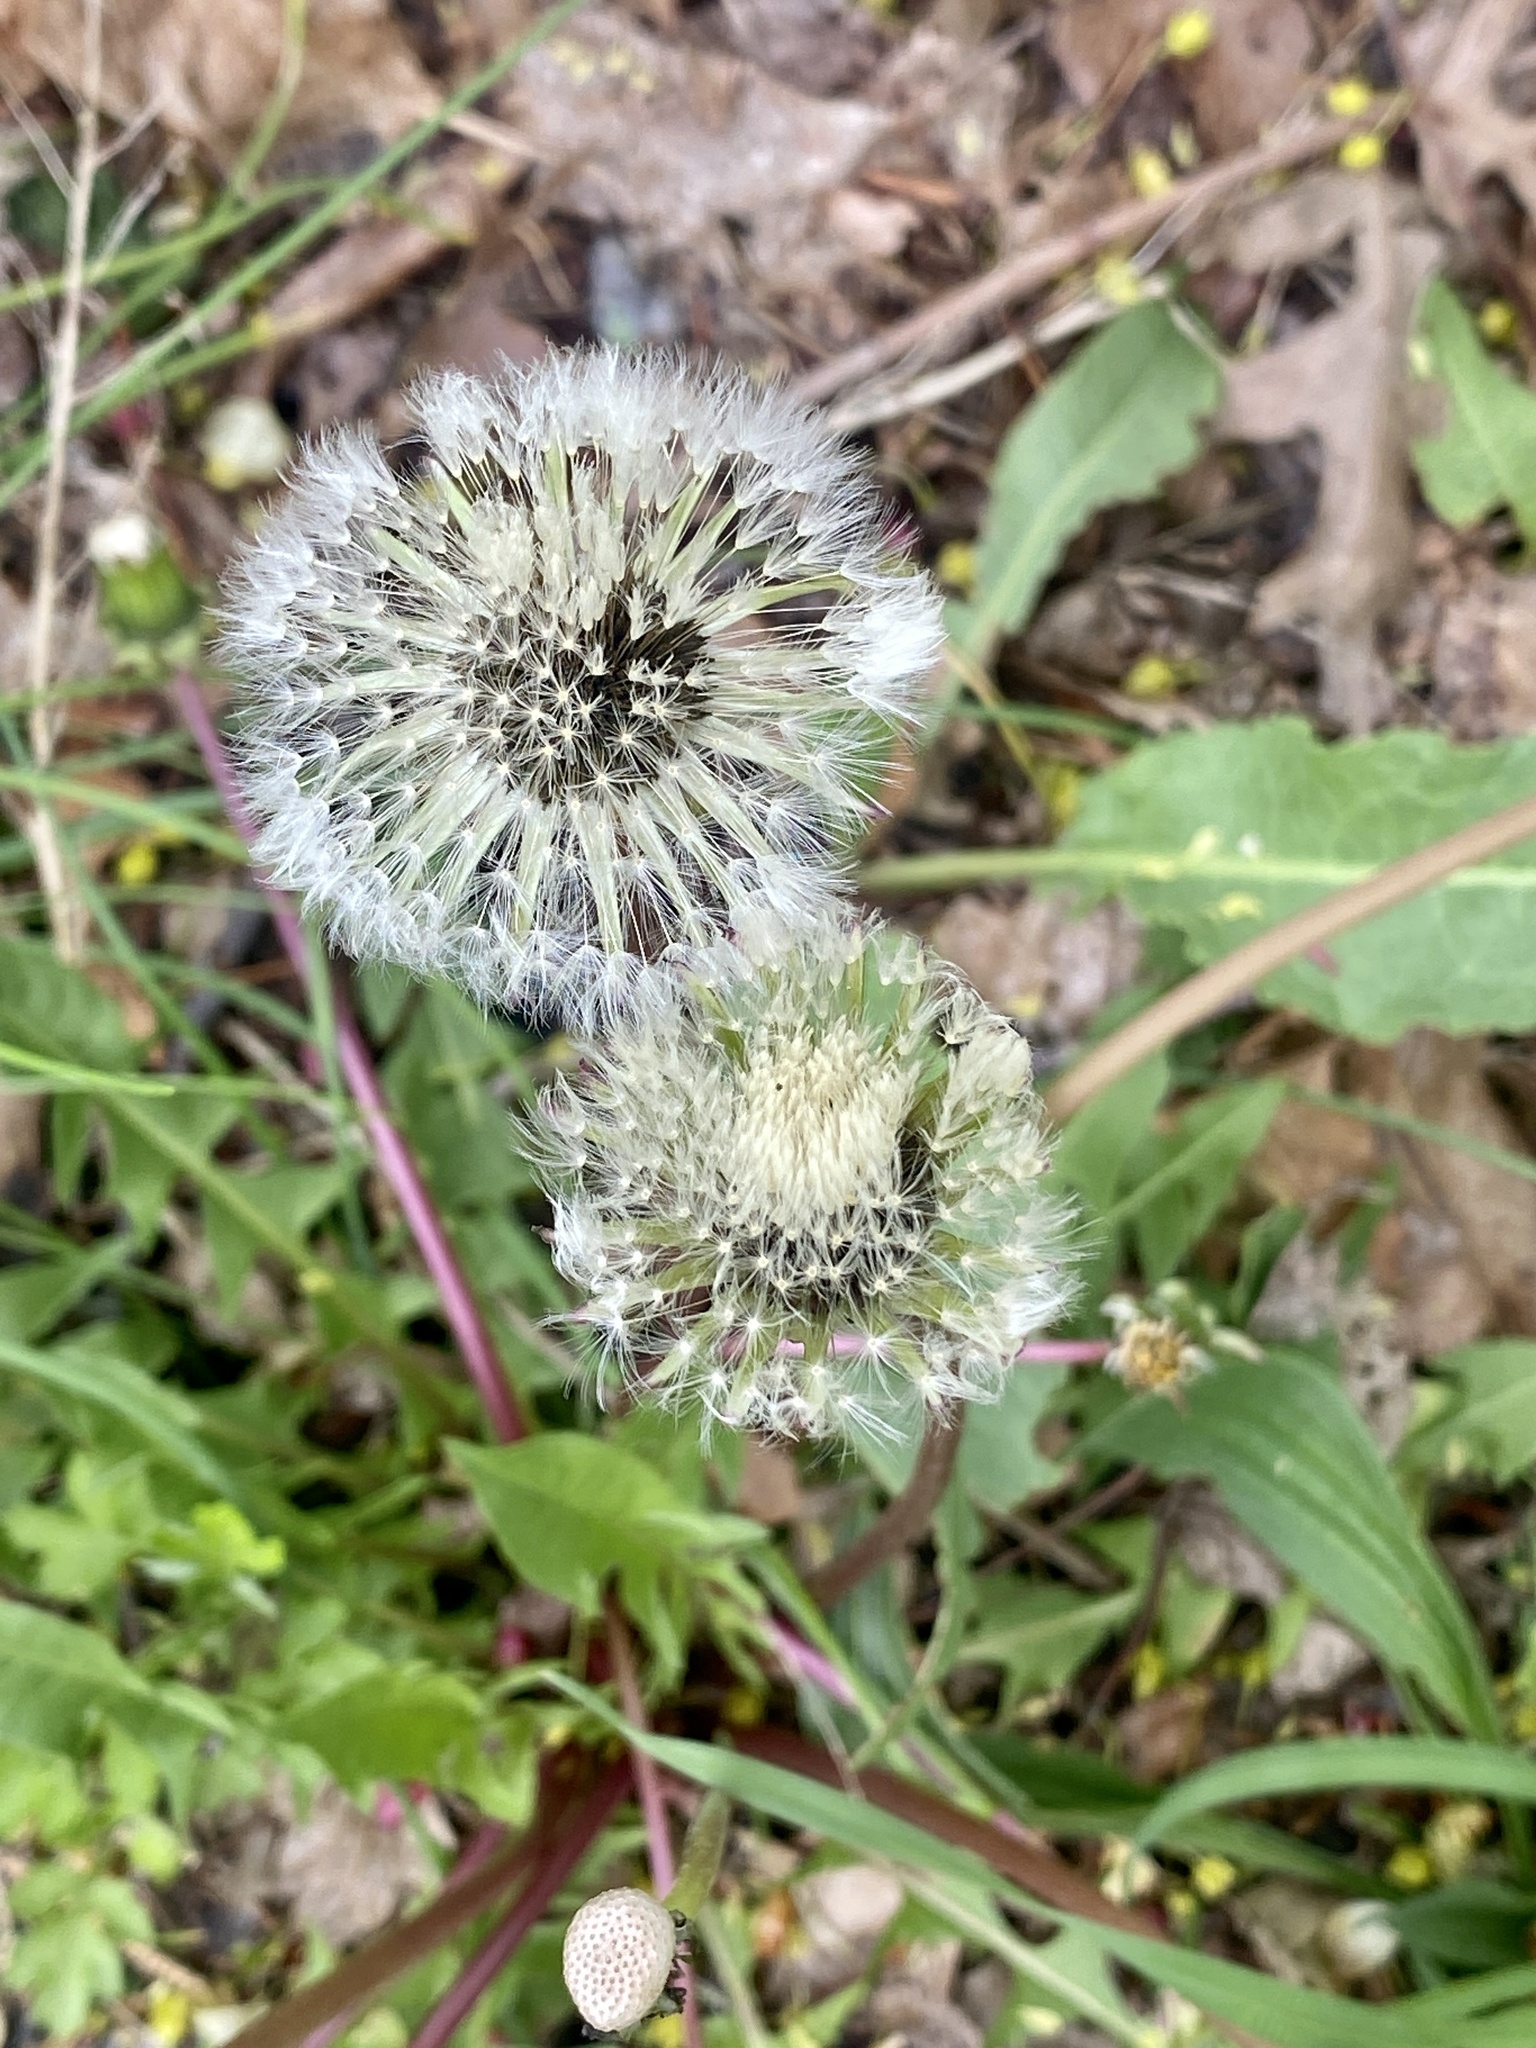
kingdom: Plantae
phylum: Tracheophyta
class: Magnoliopsida
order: Asterales
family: Asteraceae
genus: Taraxacum
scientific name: Taraxacum officinale
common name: Common dandelion
